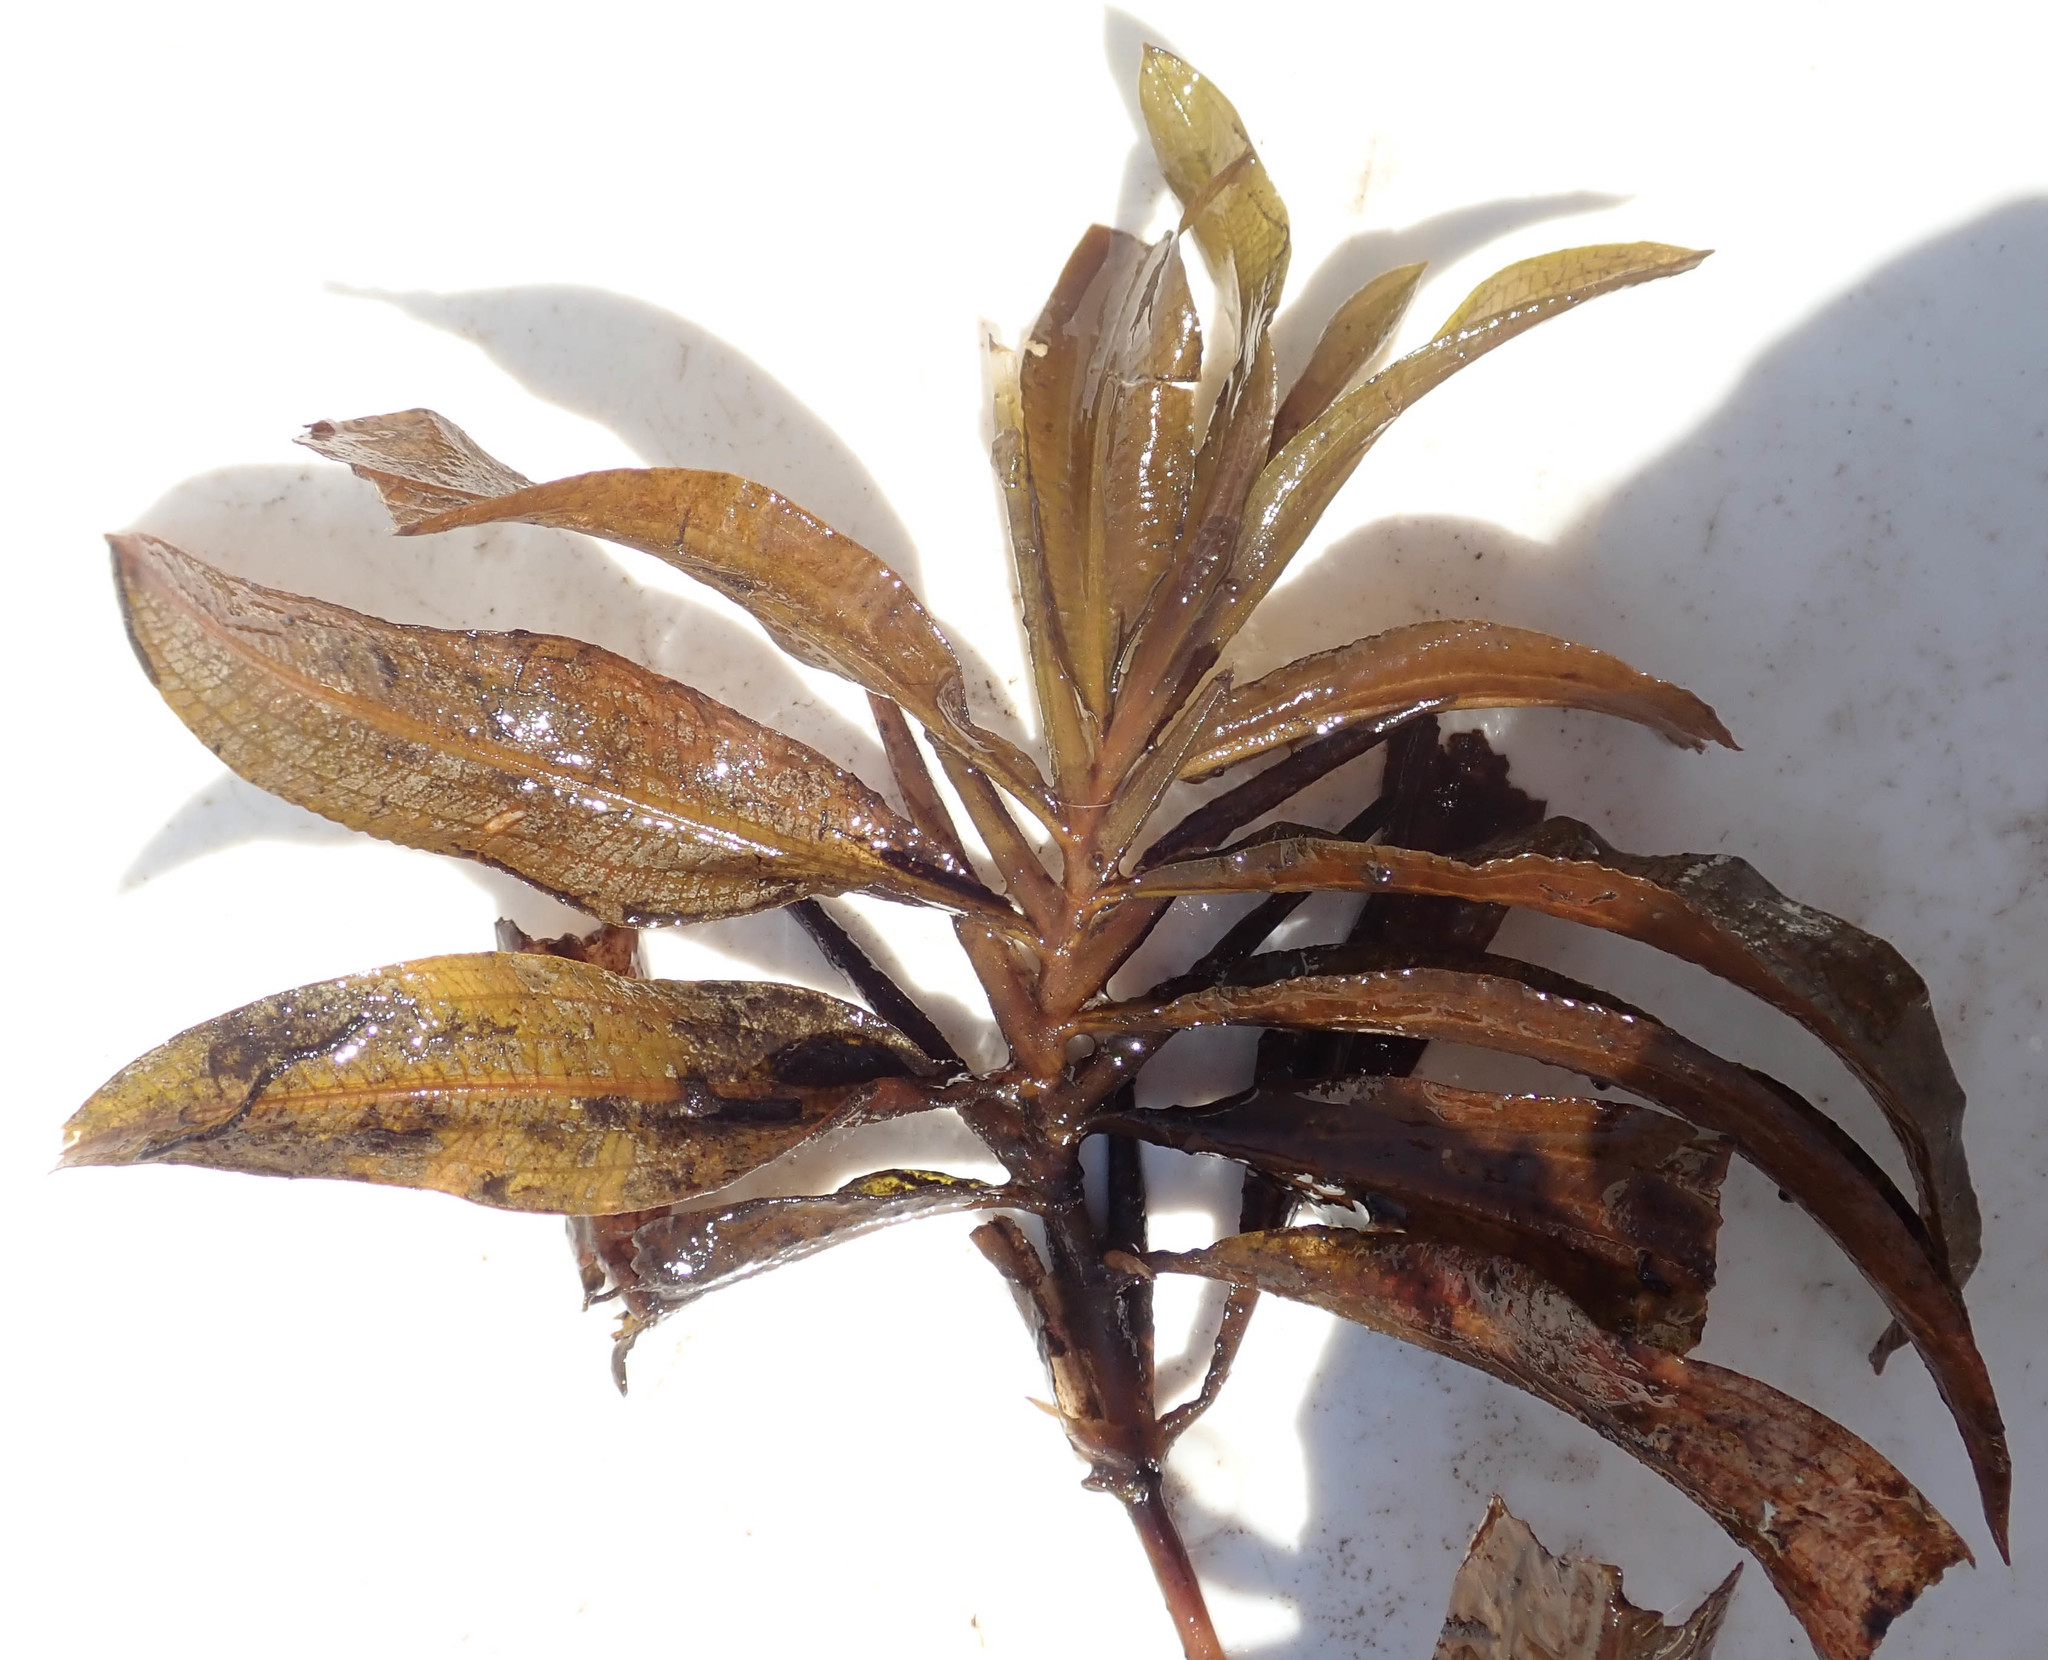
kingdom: Plantae
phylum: Tracheophyta
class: Liliopsida
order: Alismatales
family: Potamogetonaceae
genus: Potamogeton
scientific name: Potamogeton schweinfurthii
